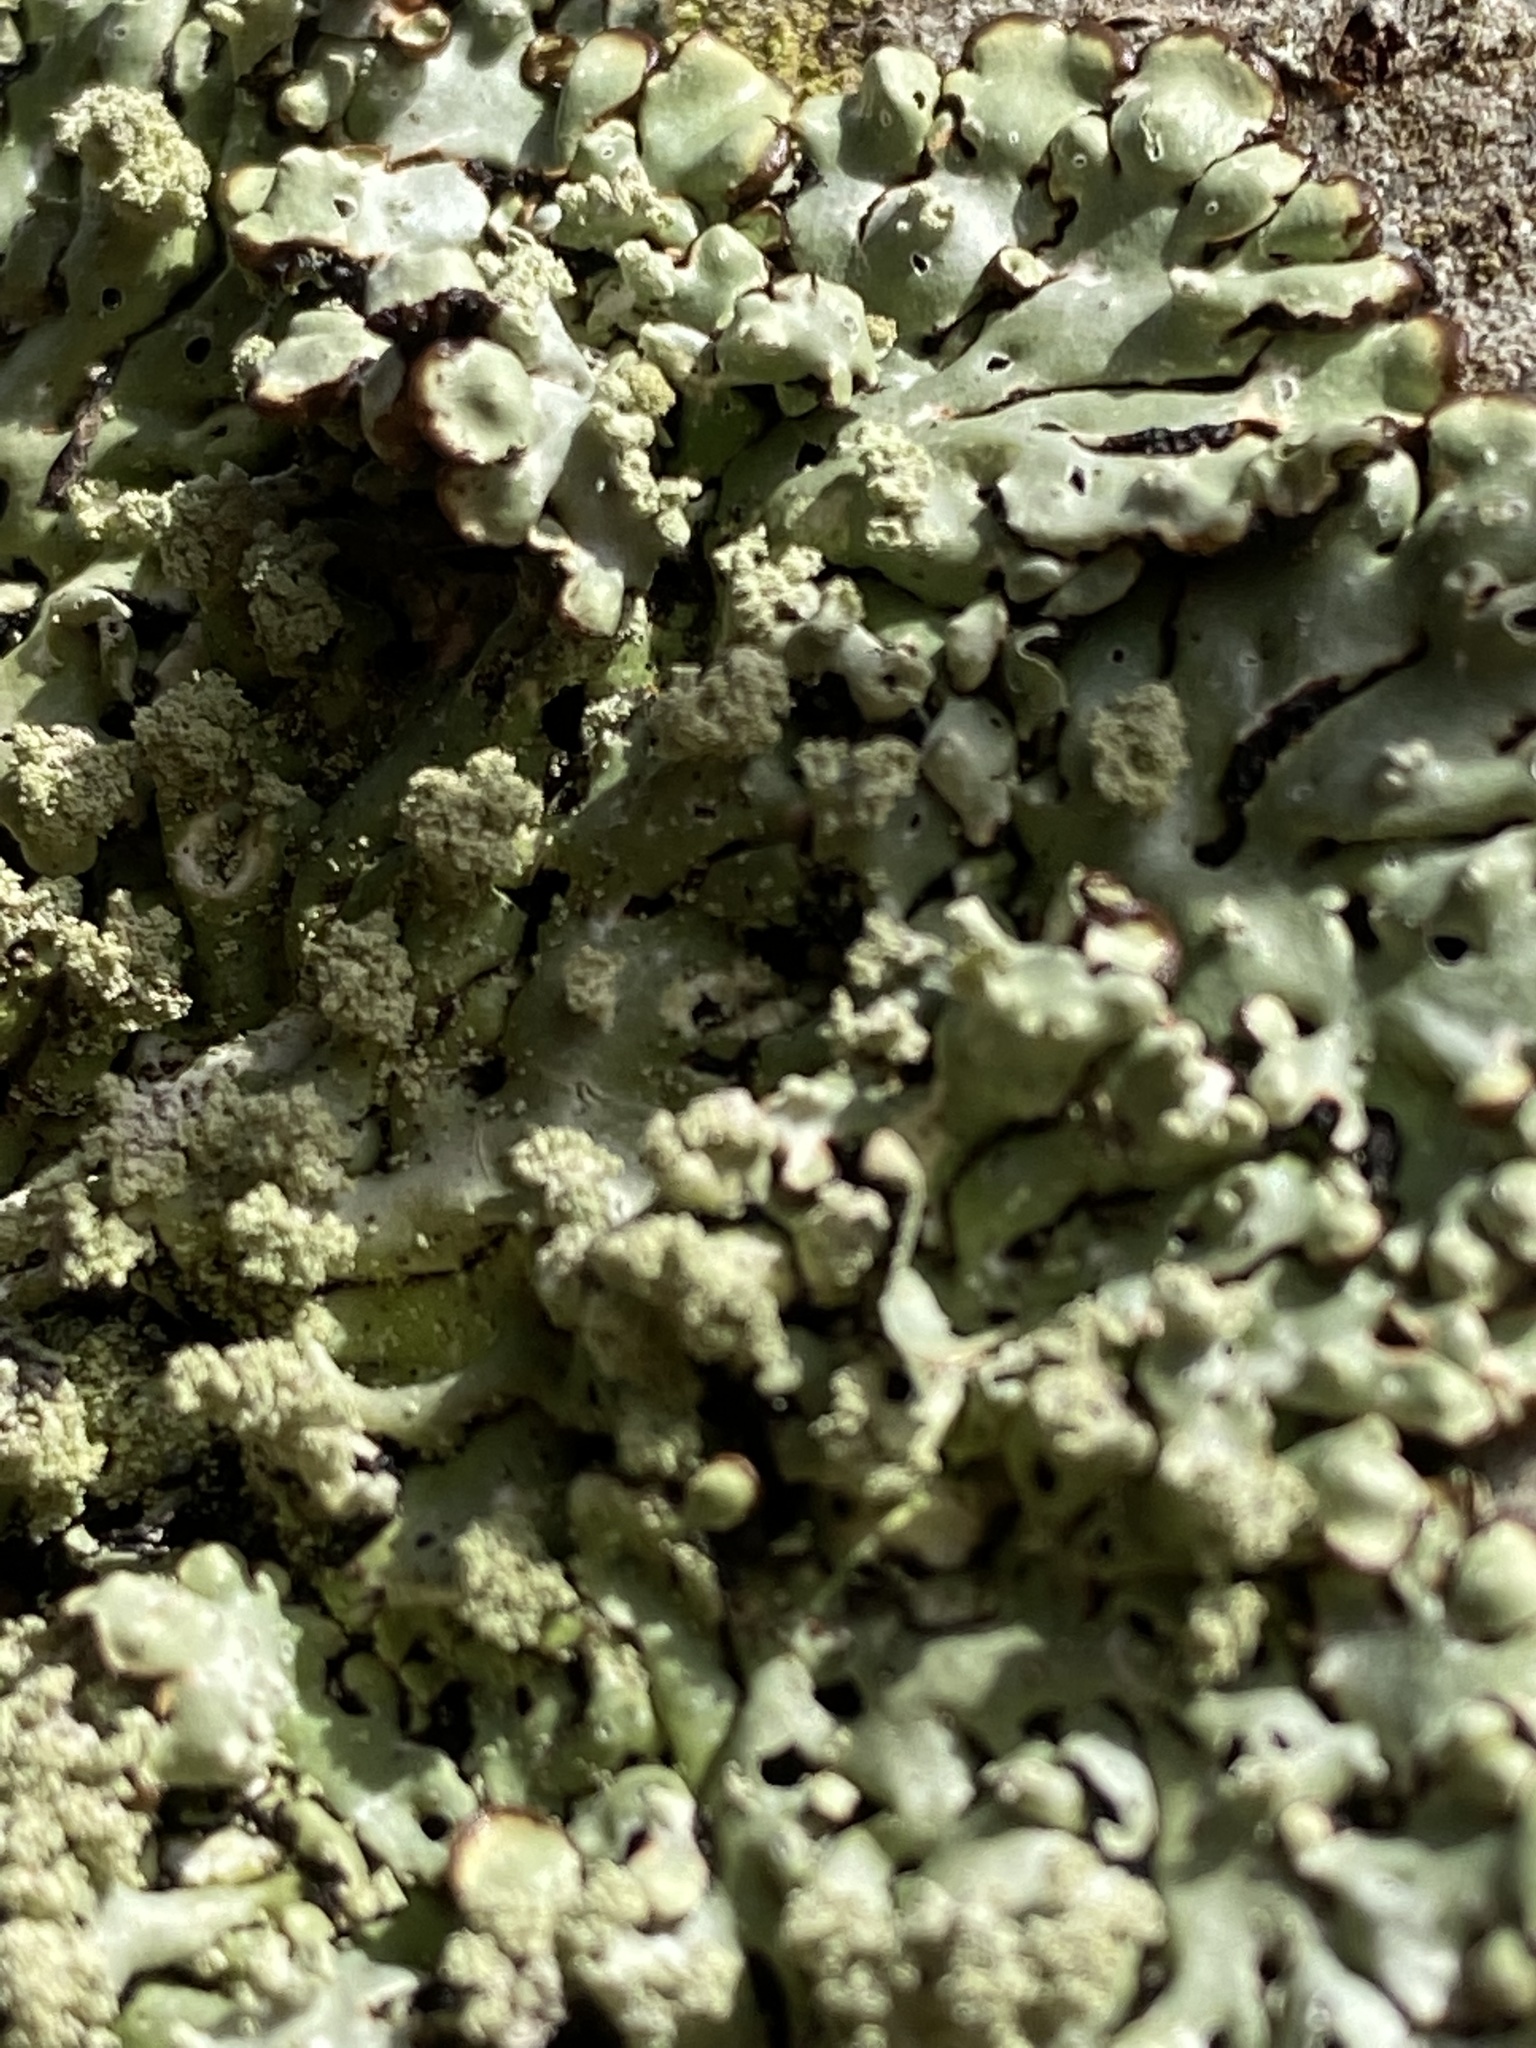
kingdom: Fungi
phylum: Ascomycota
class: Lecanoromycetes
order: Lecanorales
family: Parmeliaceae
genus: Menegazzia
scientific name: Menegazzia subsimilis
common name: Tree flute lichen
